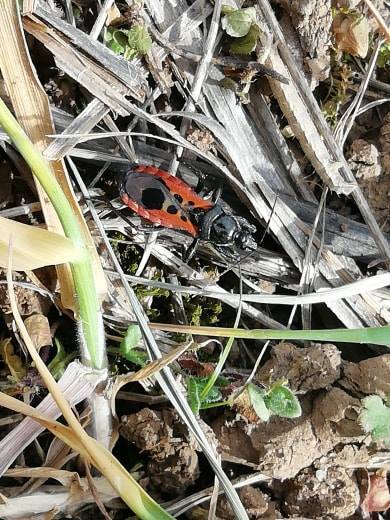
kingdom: Animalia
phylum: Arthropoda
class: Insecta
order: Hemiptera
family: Reduviidae
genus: Peirates
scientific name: Peirates stridulus
